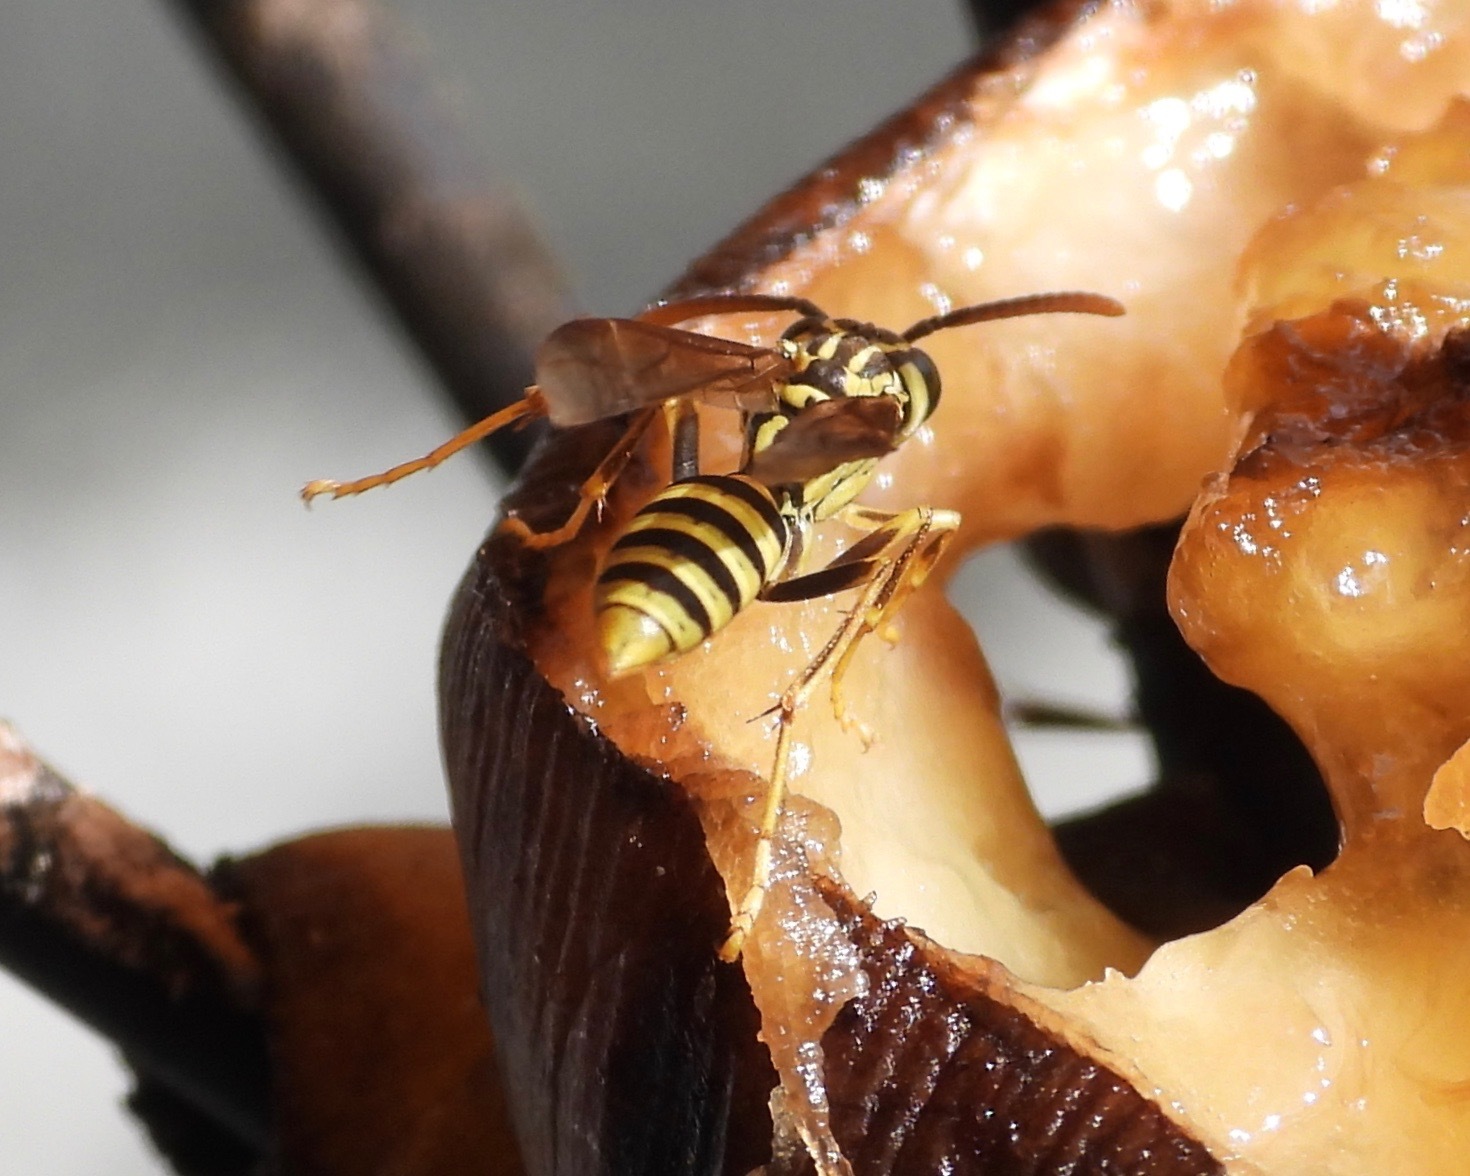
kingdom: Animalia
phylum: Arthropoda
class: Insecta
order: Hymenoptera
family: Vespidae
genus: Agelaia
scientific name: Agelaia areata
